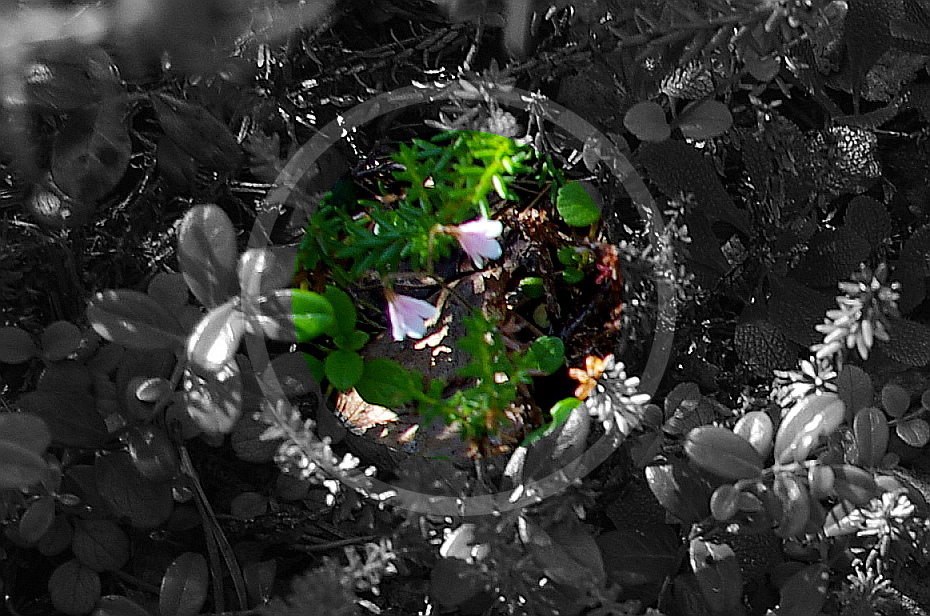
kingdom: Plantae
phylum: Tracheophyta
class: Magnoliopsida
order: Dipsacales
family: Caprifoliaceae
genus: Linnaea
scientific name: Linnaea borealis
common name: Twinflower
